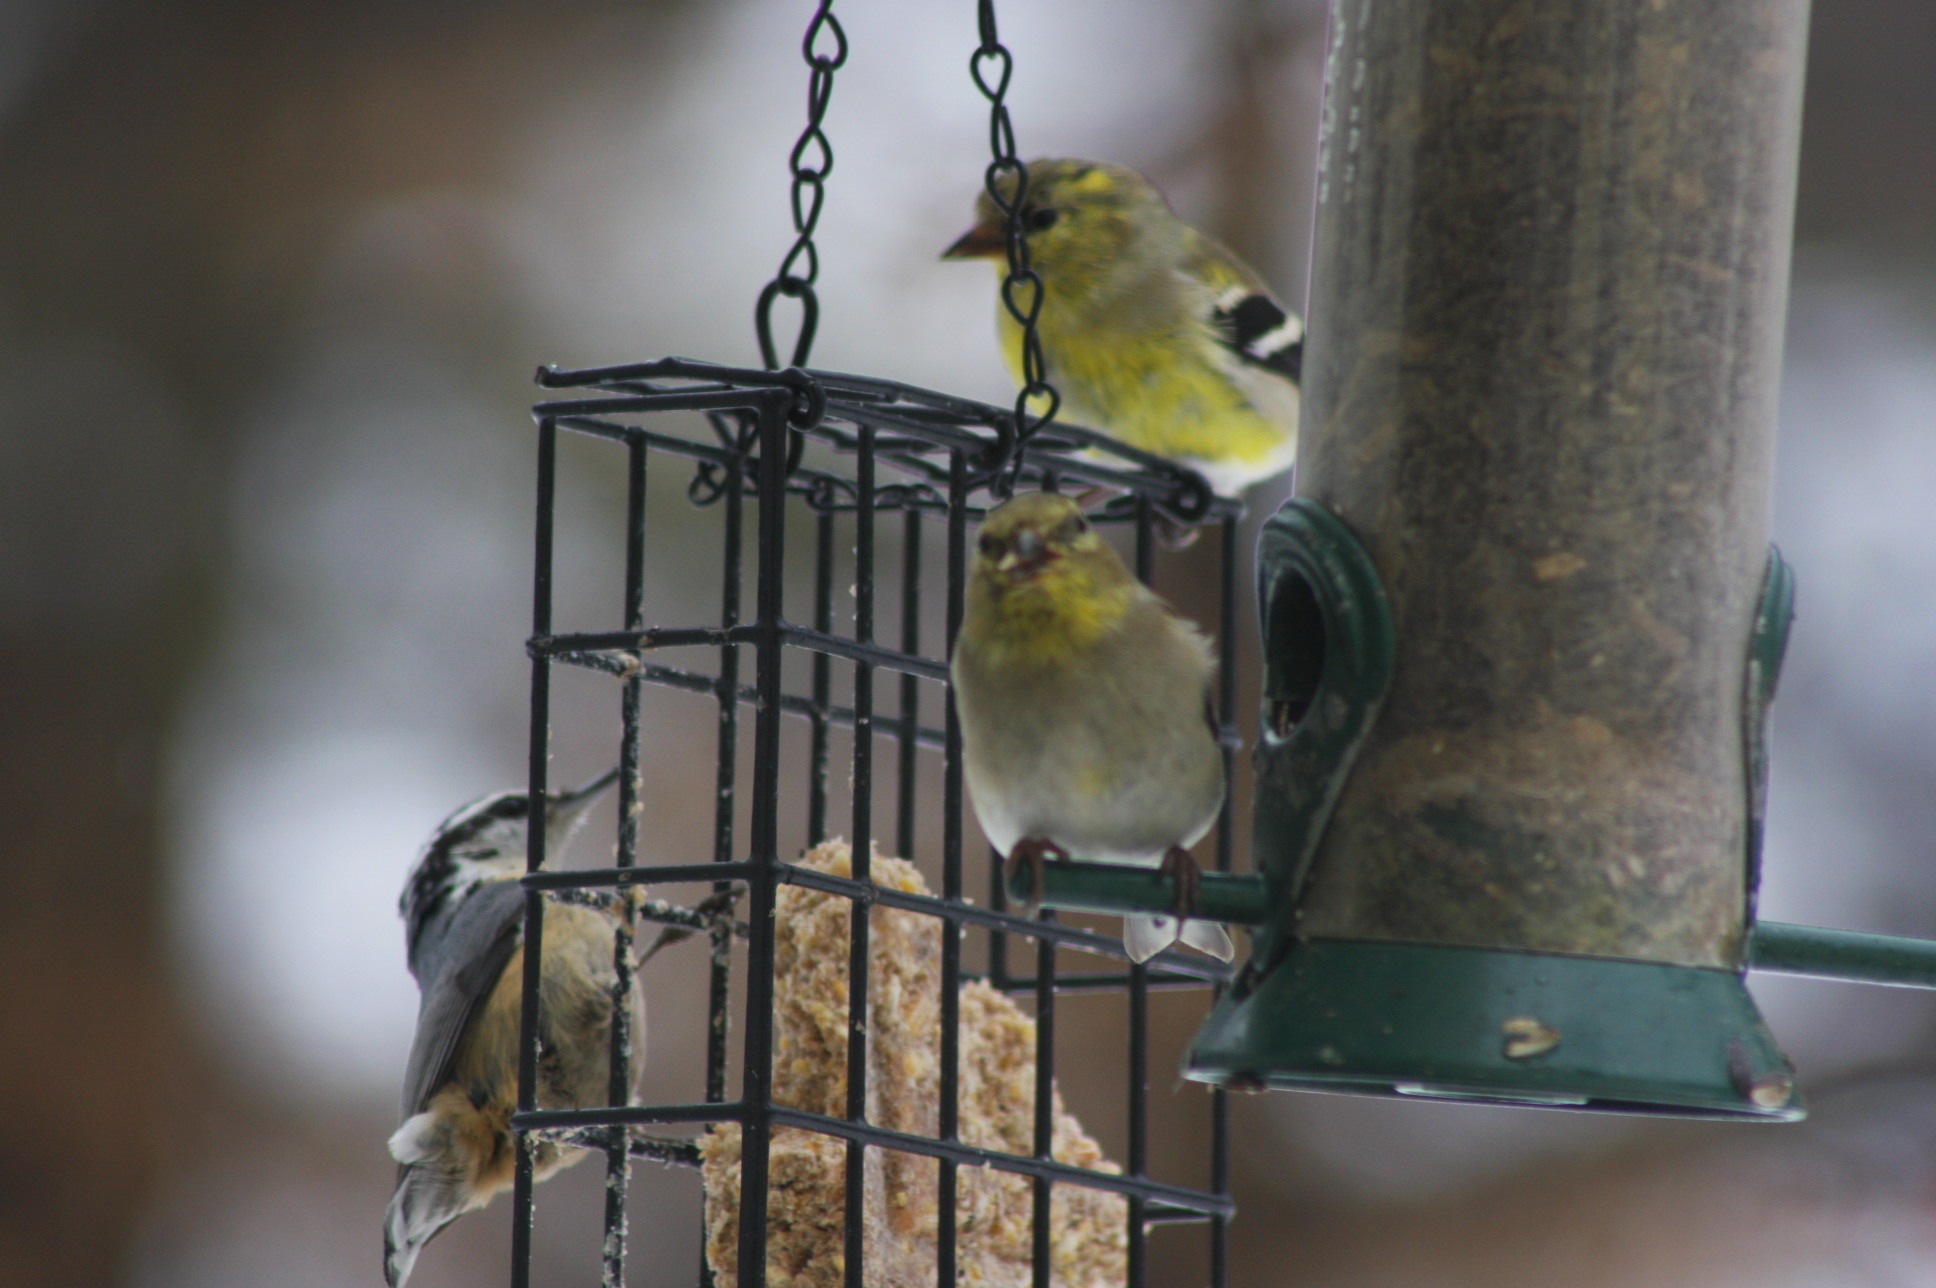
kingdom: Animalia
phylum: Chordata
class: Aves
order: Passeriformes
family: Fringillidae
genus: Spinus
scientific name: Spinus tristis
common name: American goldfinch
